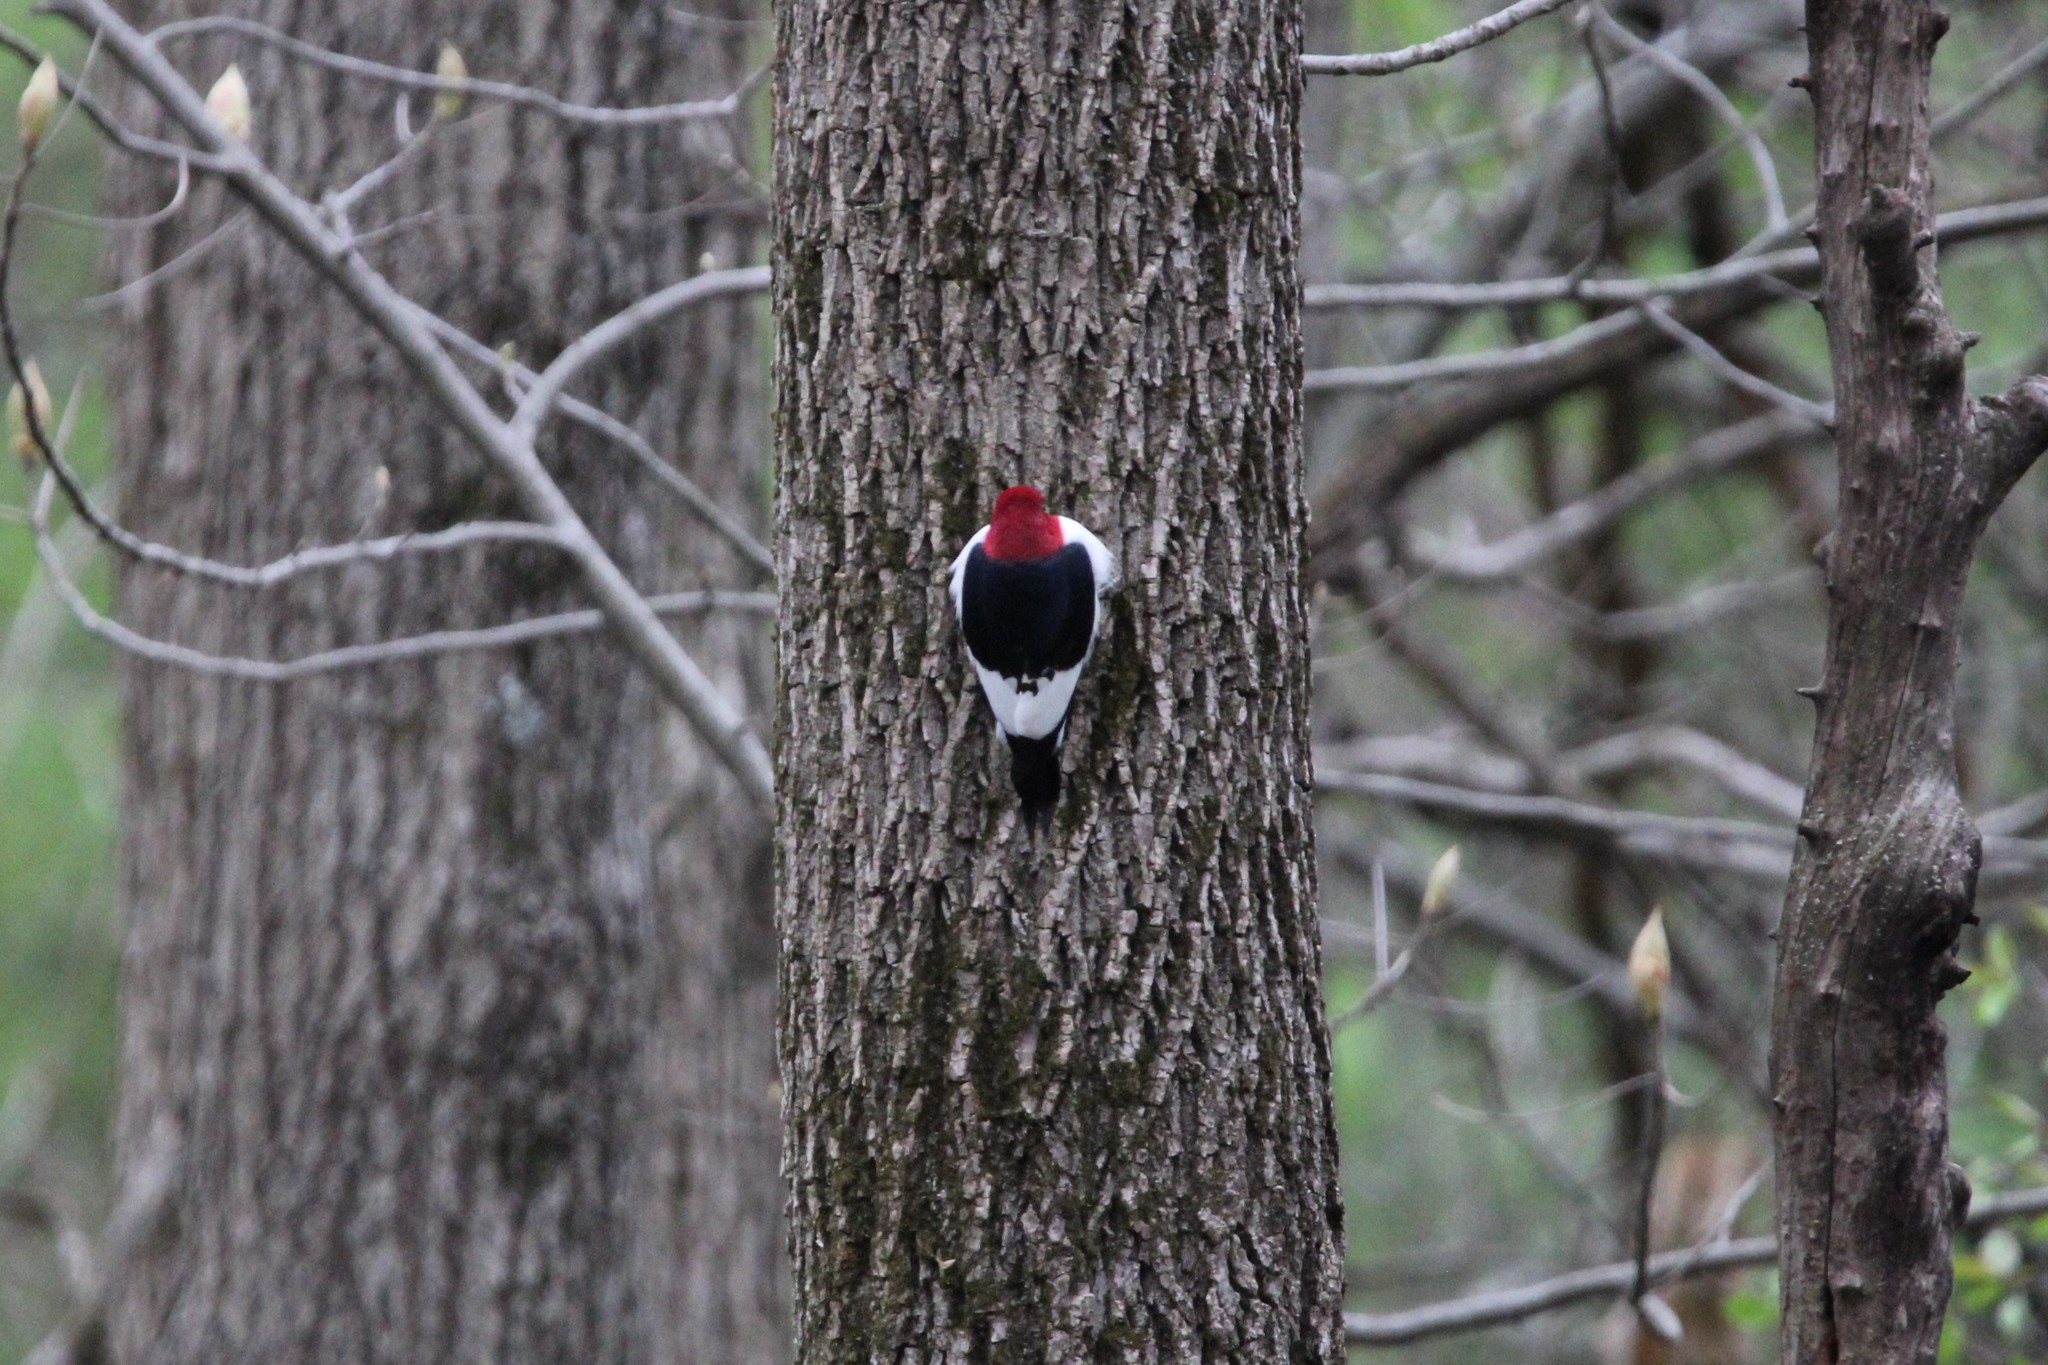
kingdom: Animalia
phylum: Chordata
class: Aves
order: Piciformes
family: Picidae
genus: Melanerpes
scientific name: Melanerpes erythrocephalus
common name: Red-headed woodpecker
